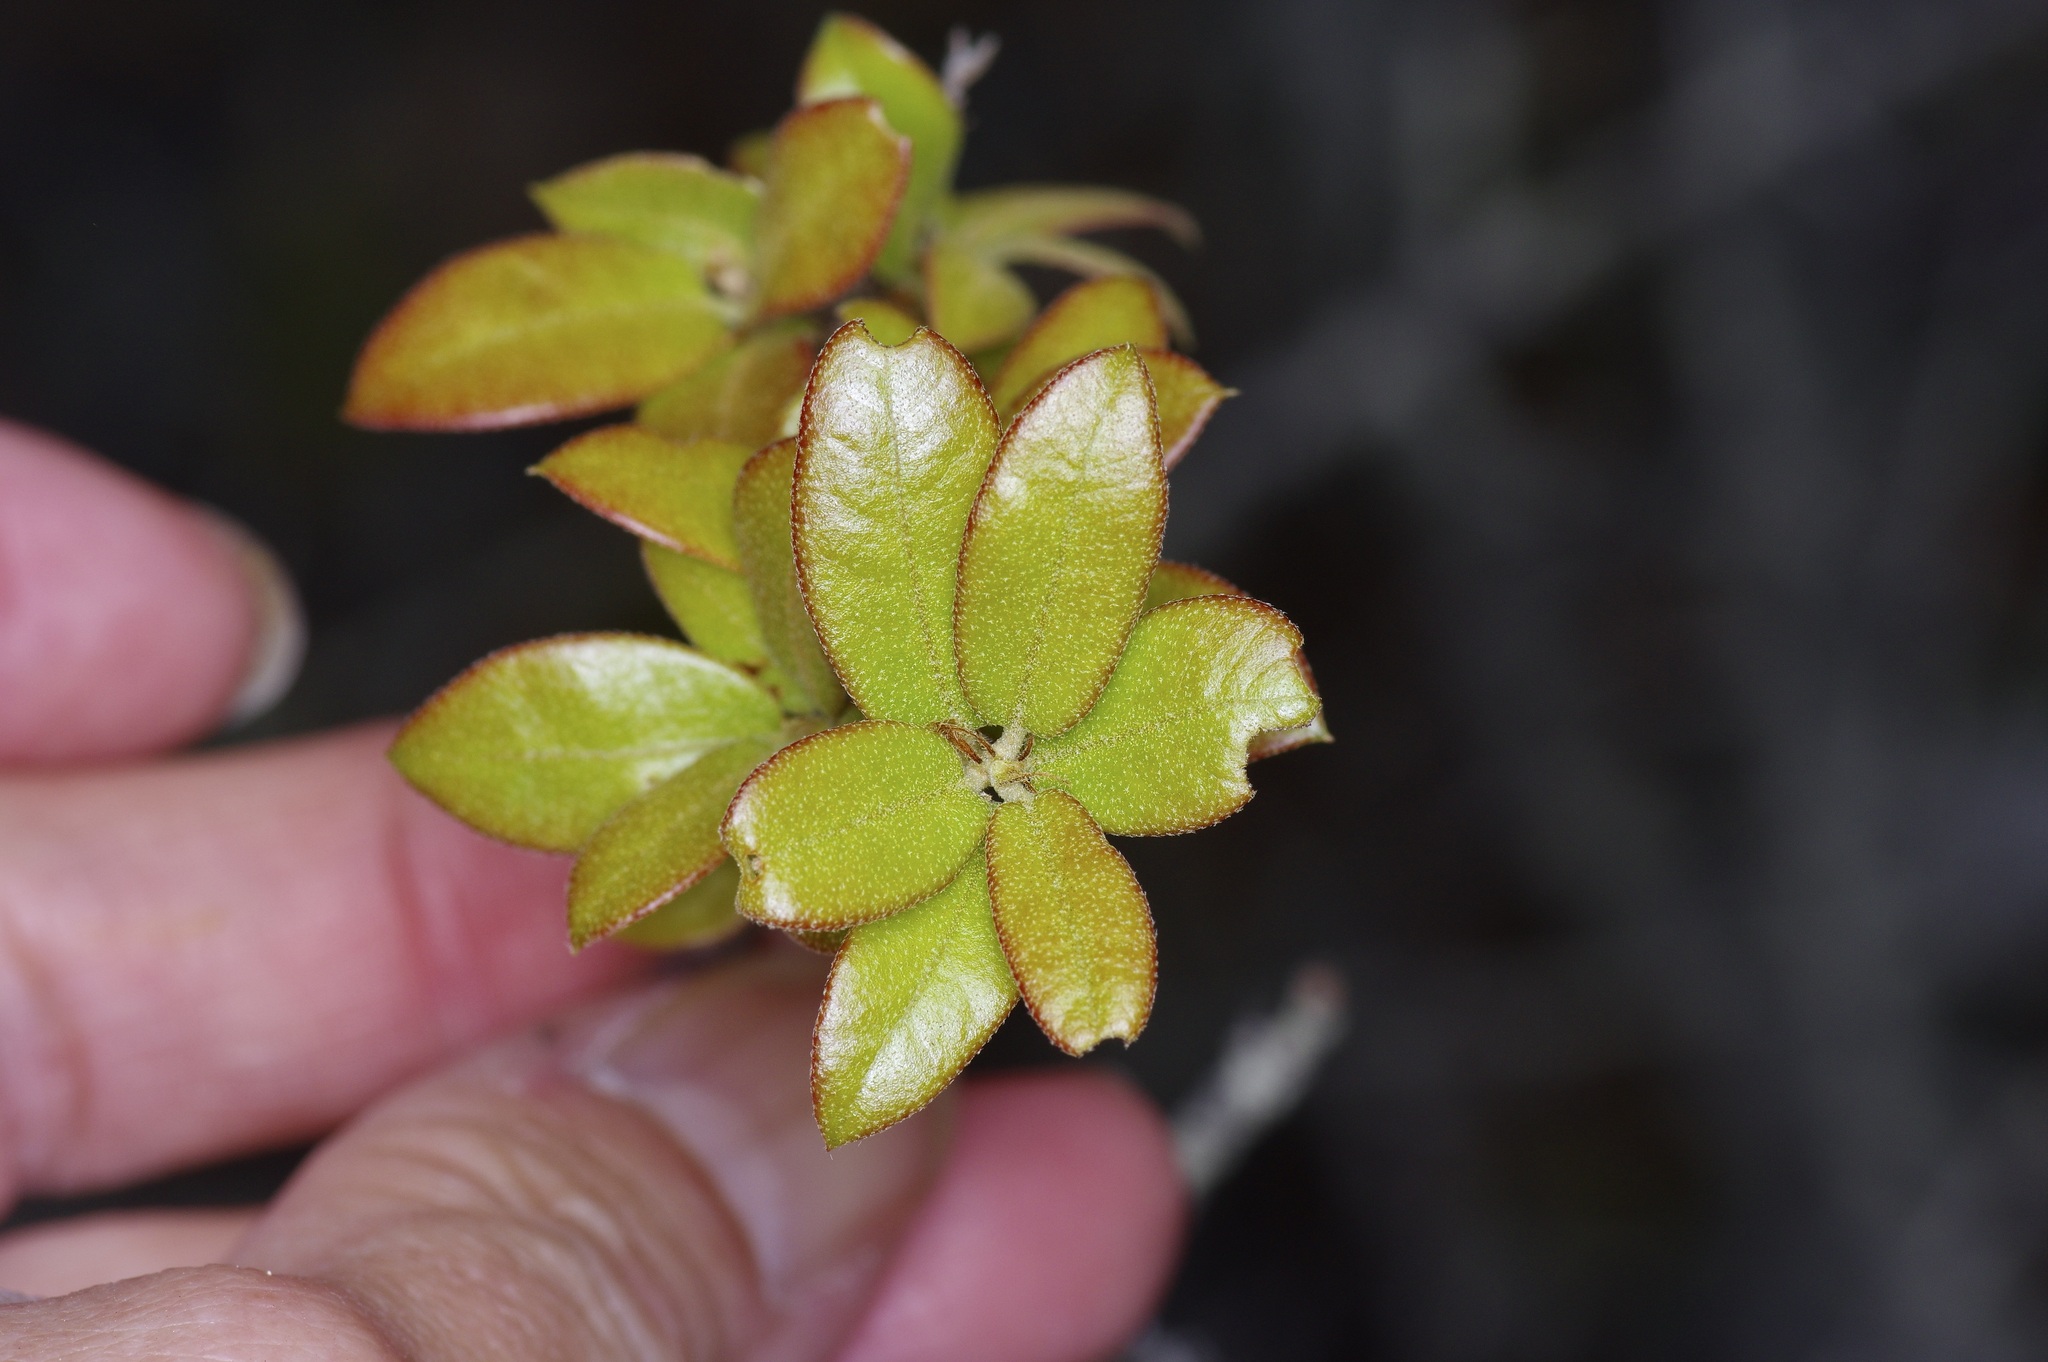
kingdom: Plantae
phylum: Tracheophyta
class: Magnoliopsida
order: Fagales
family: Fagaceae
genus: Quercus
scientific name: Quercus fusiformis
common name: Texas live oak
